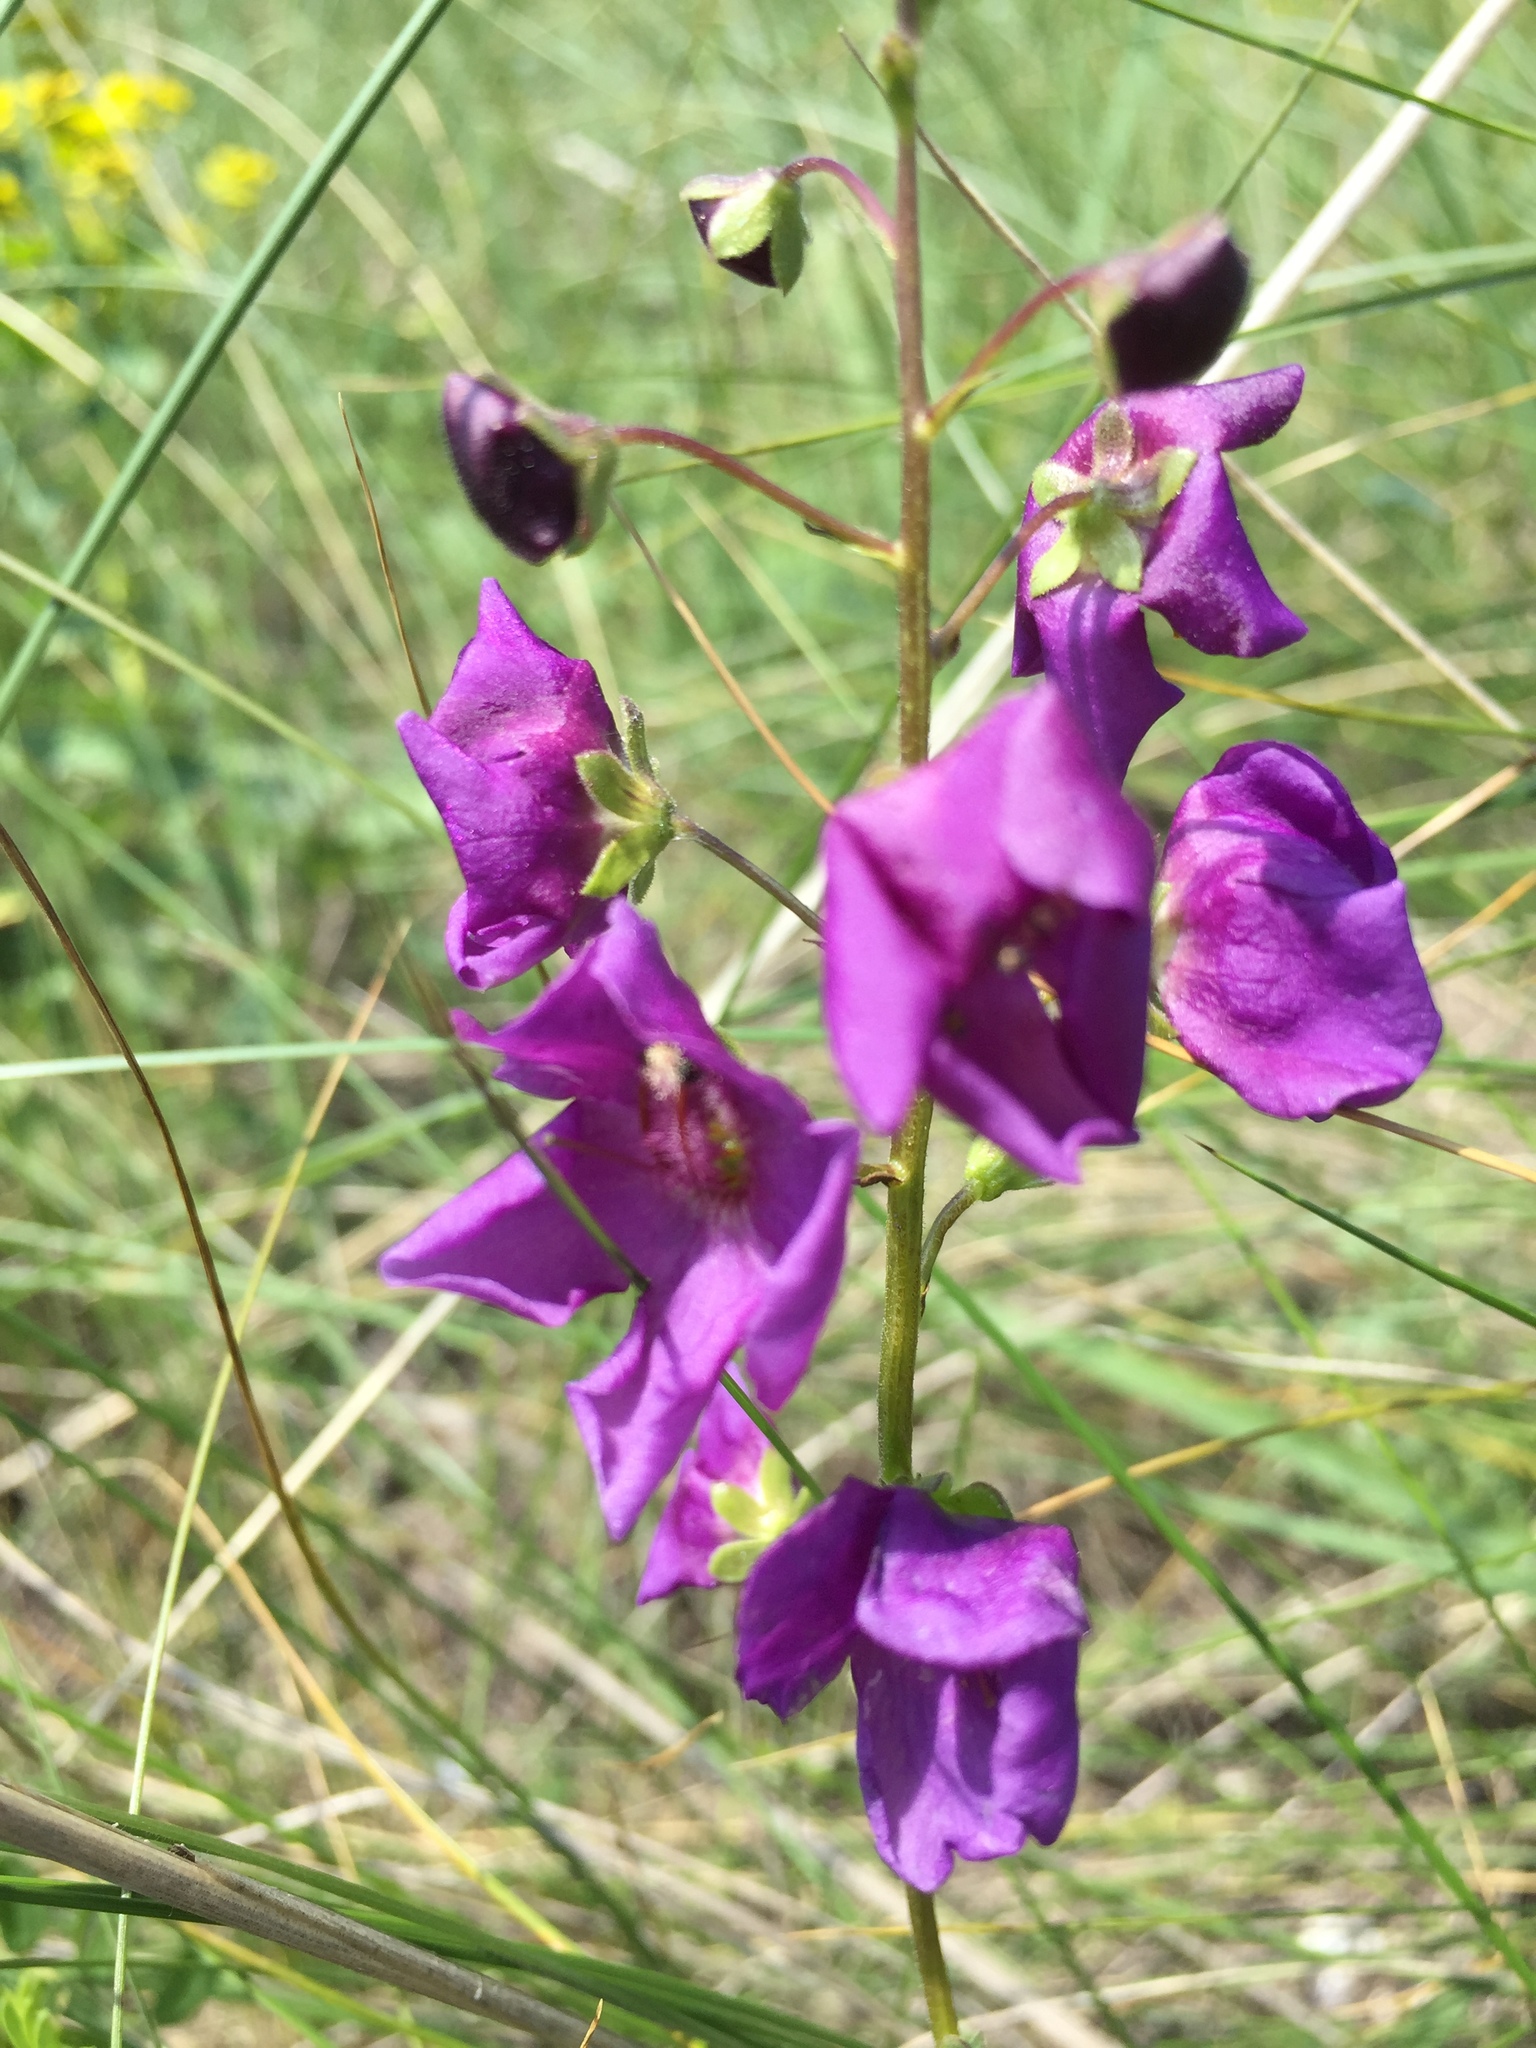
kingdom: Plantae
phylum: Tracheophyta
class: Magnoliopsida
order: Lamiales
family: Scrophulariaceae
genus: Verbascum
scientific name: Verbascum phoeniceum
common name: Purple mullein
